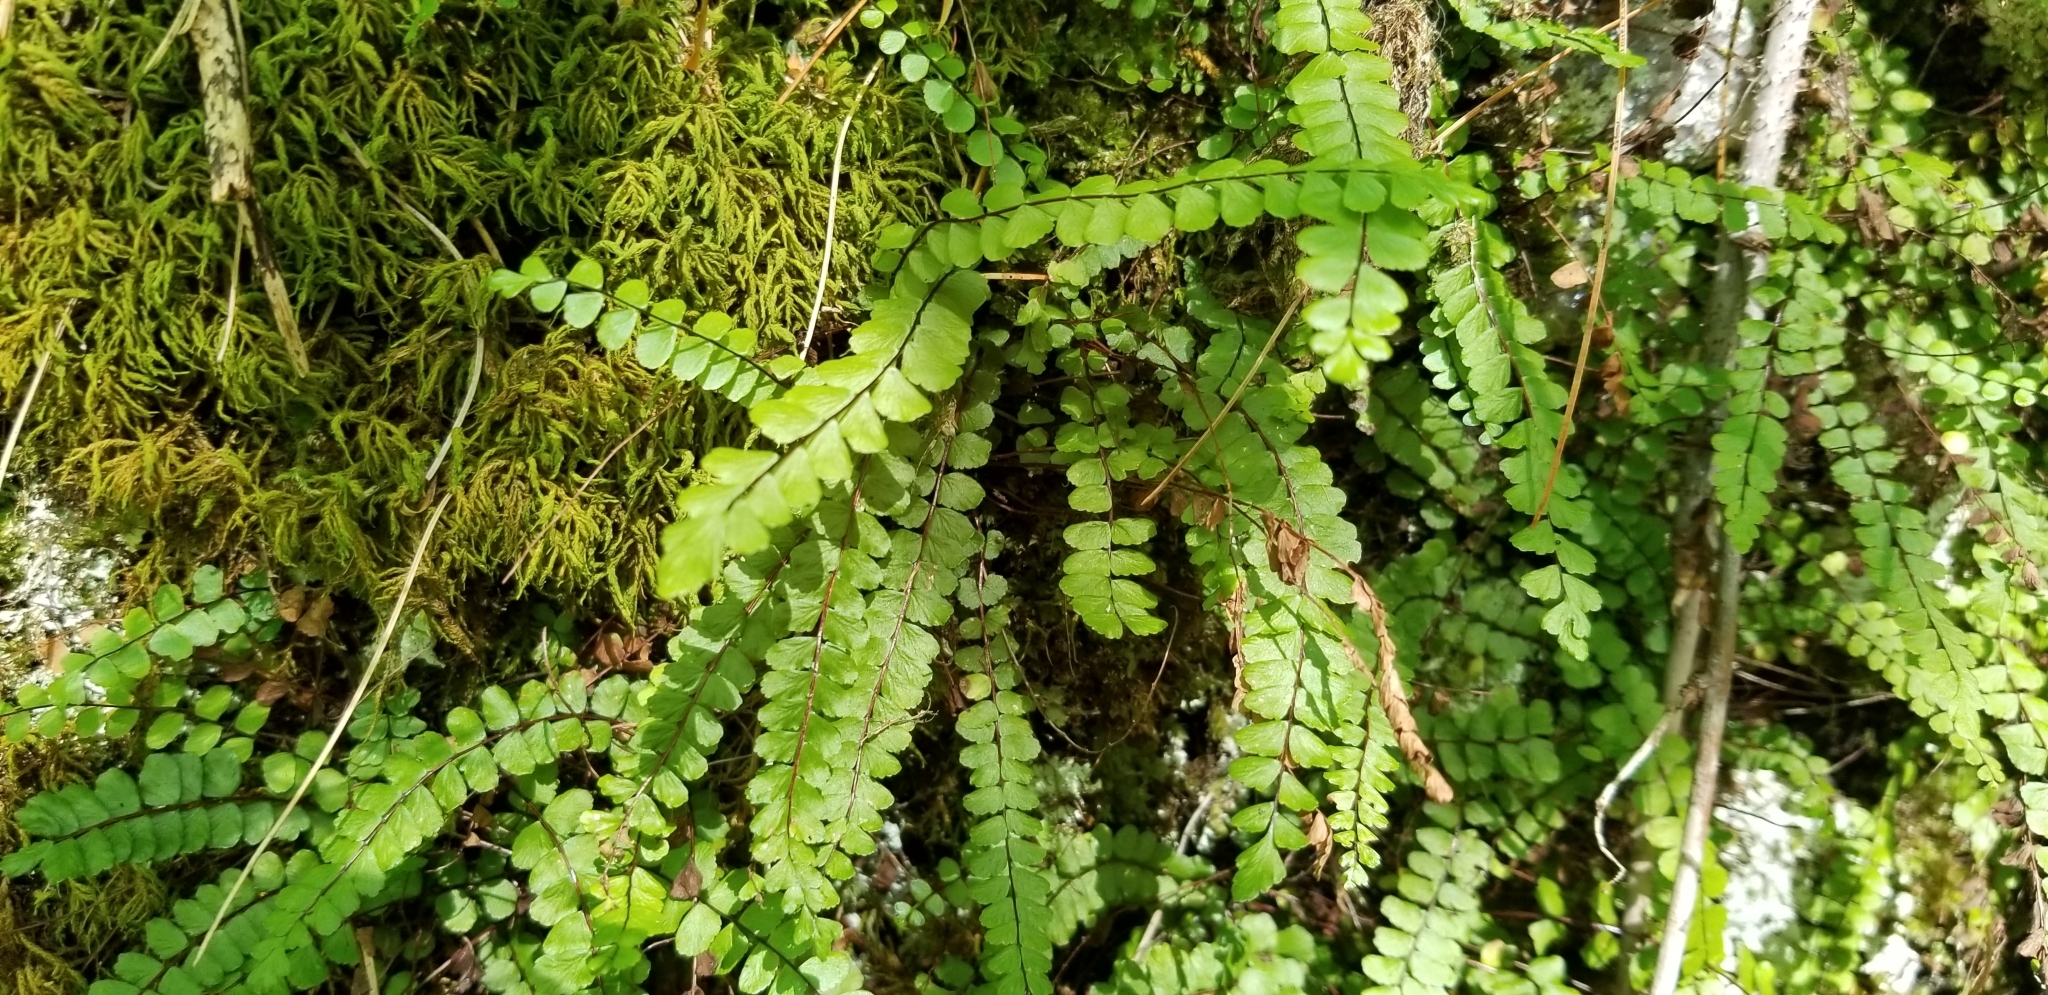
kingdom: Plantae
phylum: Tracheophyta
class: Polypodiopsida
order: Polypodiales
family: Aspleniaceae
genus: Asplenium
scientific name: Asplenium trichomanes
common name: Maidenhair spleenwort
